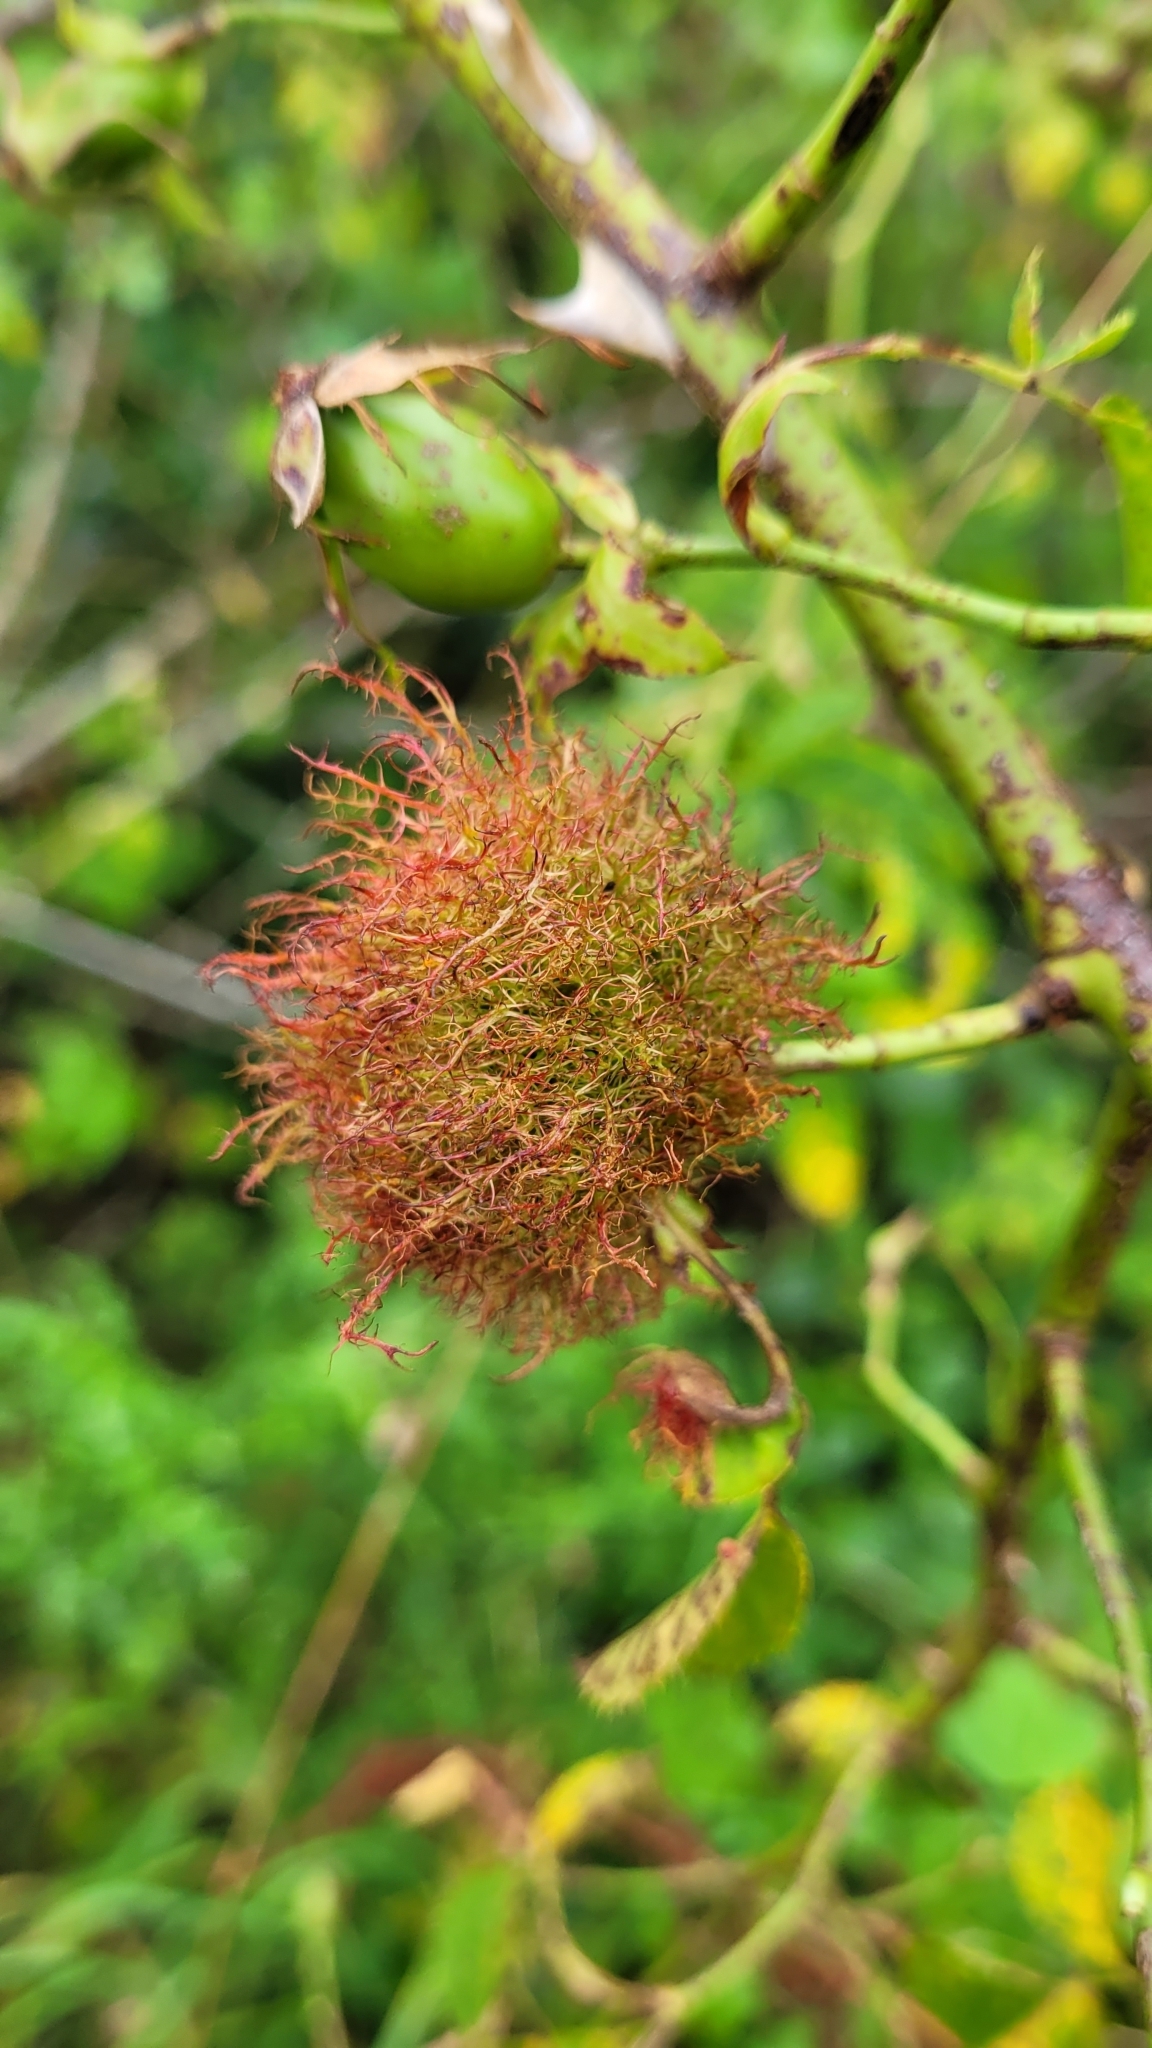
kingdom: Animalia
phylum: Arthropoda
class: Insecta
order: Hymenoptera
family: Cynipidae
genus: Diplolepis
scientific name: Diplolepis rosae
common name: Bedeguar gall
